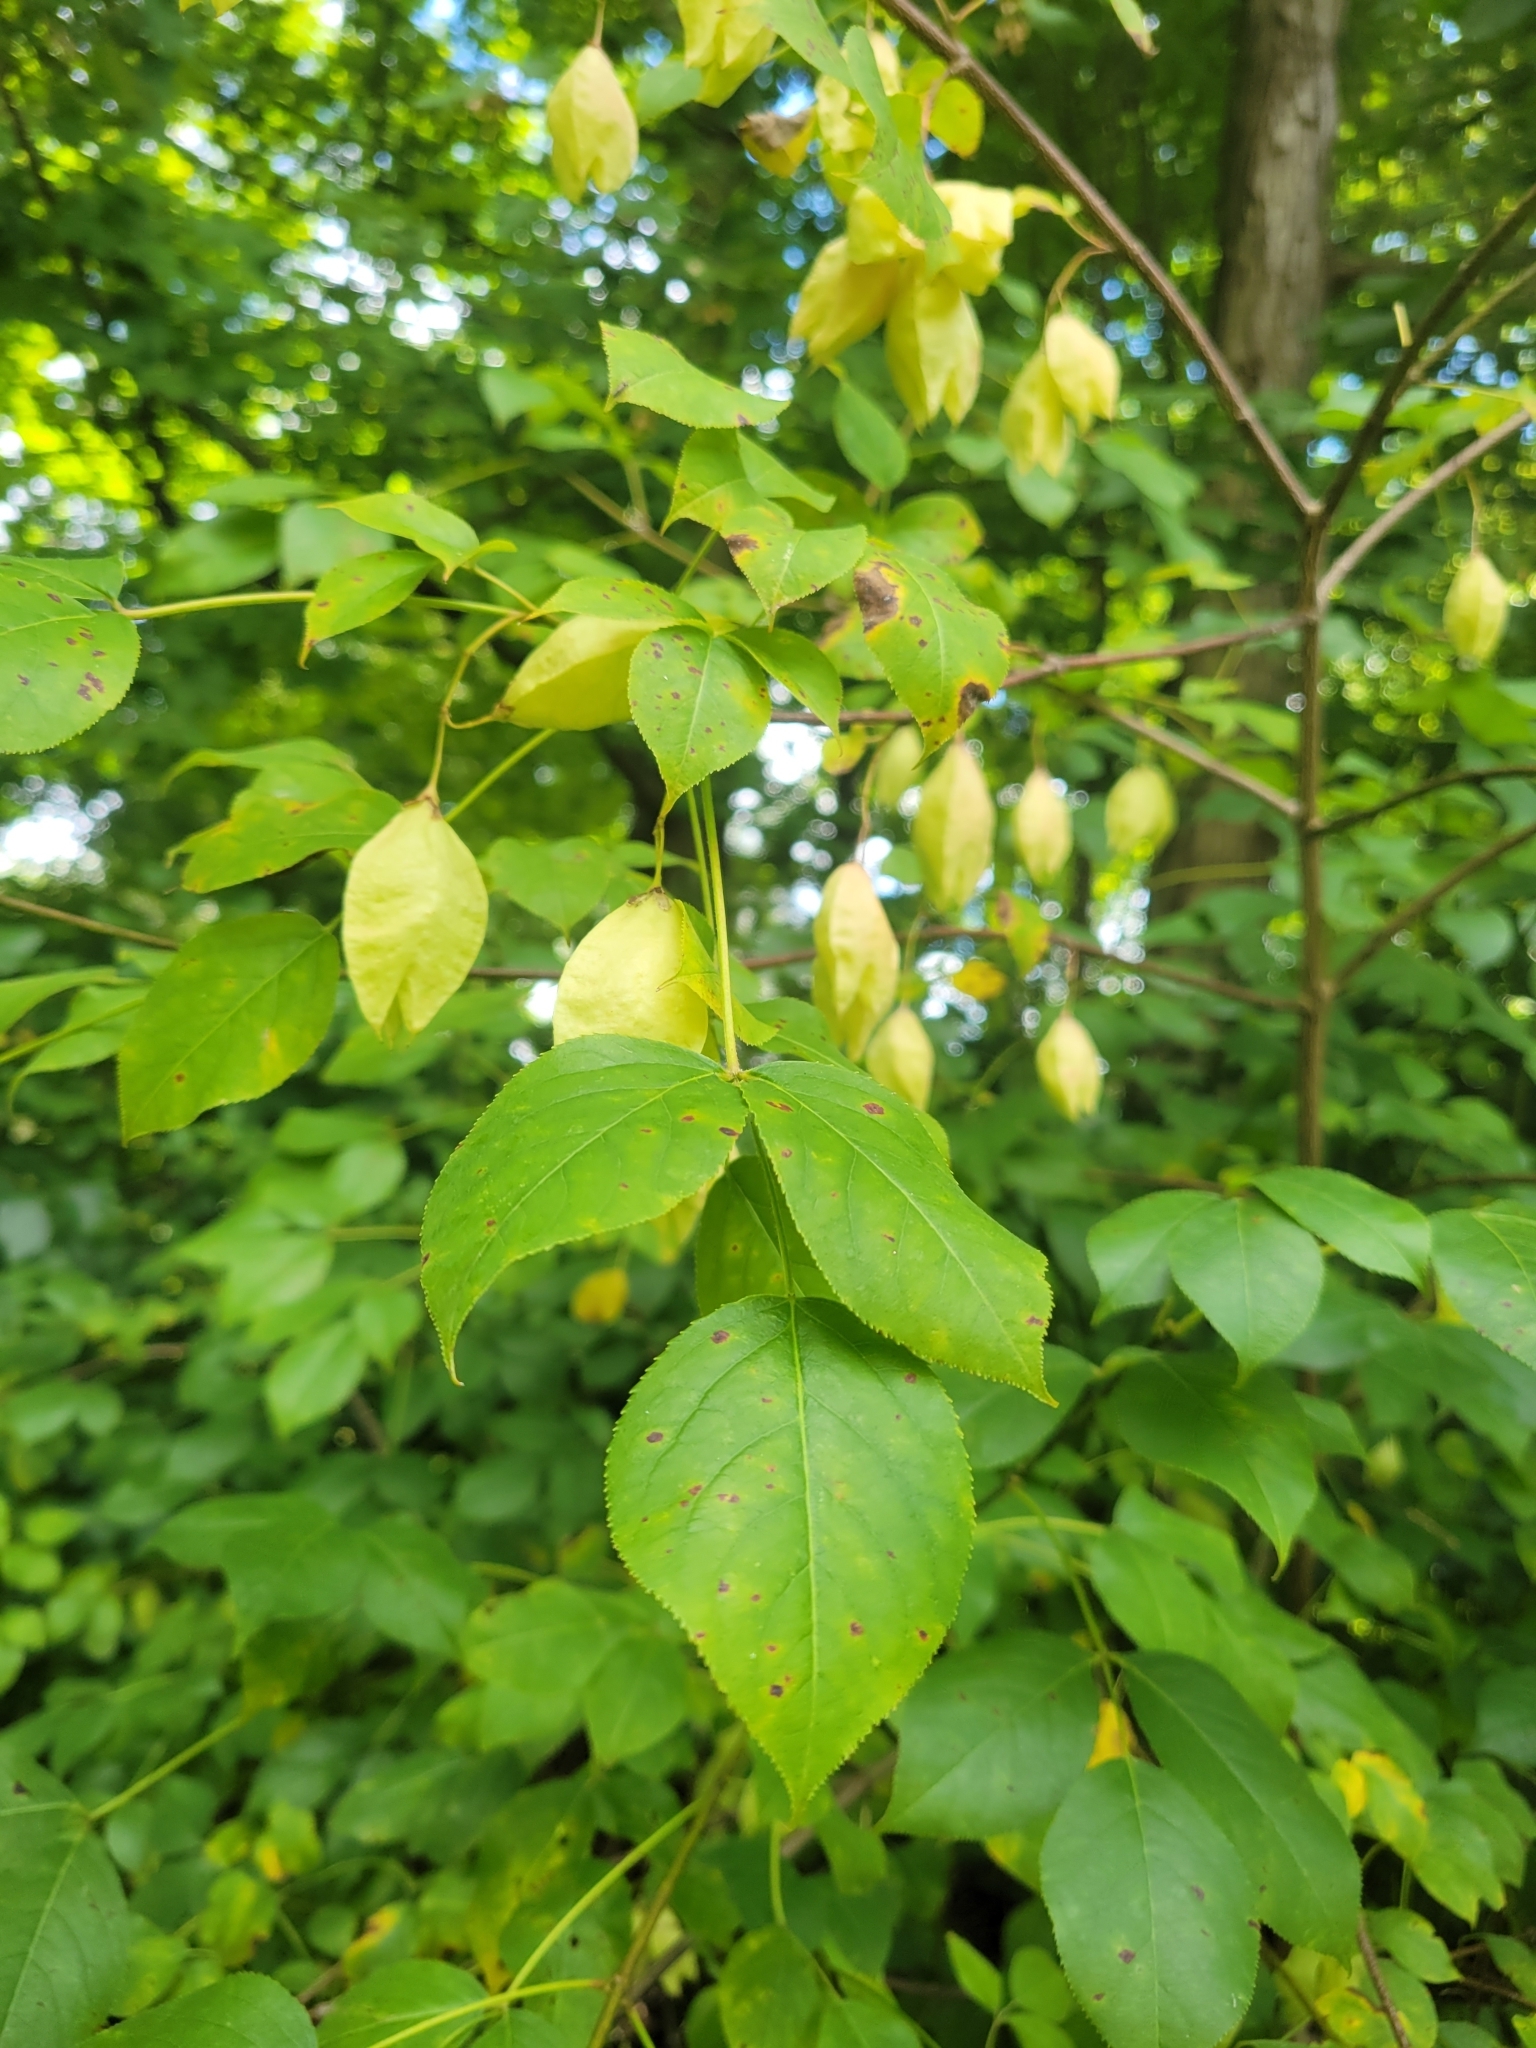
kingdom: Plantae
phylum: Tracheophyta
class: Magnoliopsida
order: Crossosomatales
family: Staphyleaceae
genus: Staphylea
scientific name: Staphylea trifolia
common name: American bladdernut
